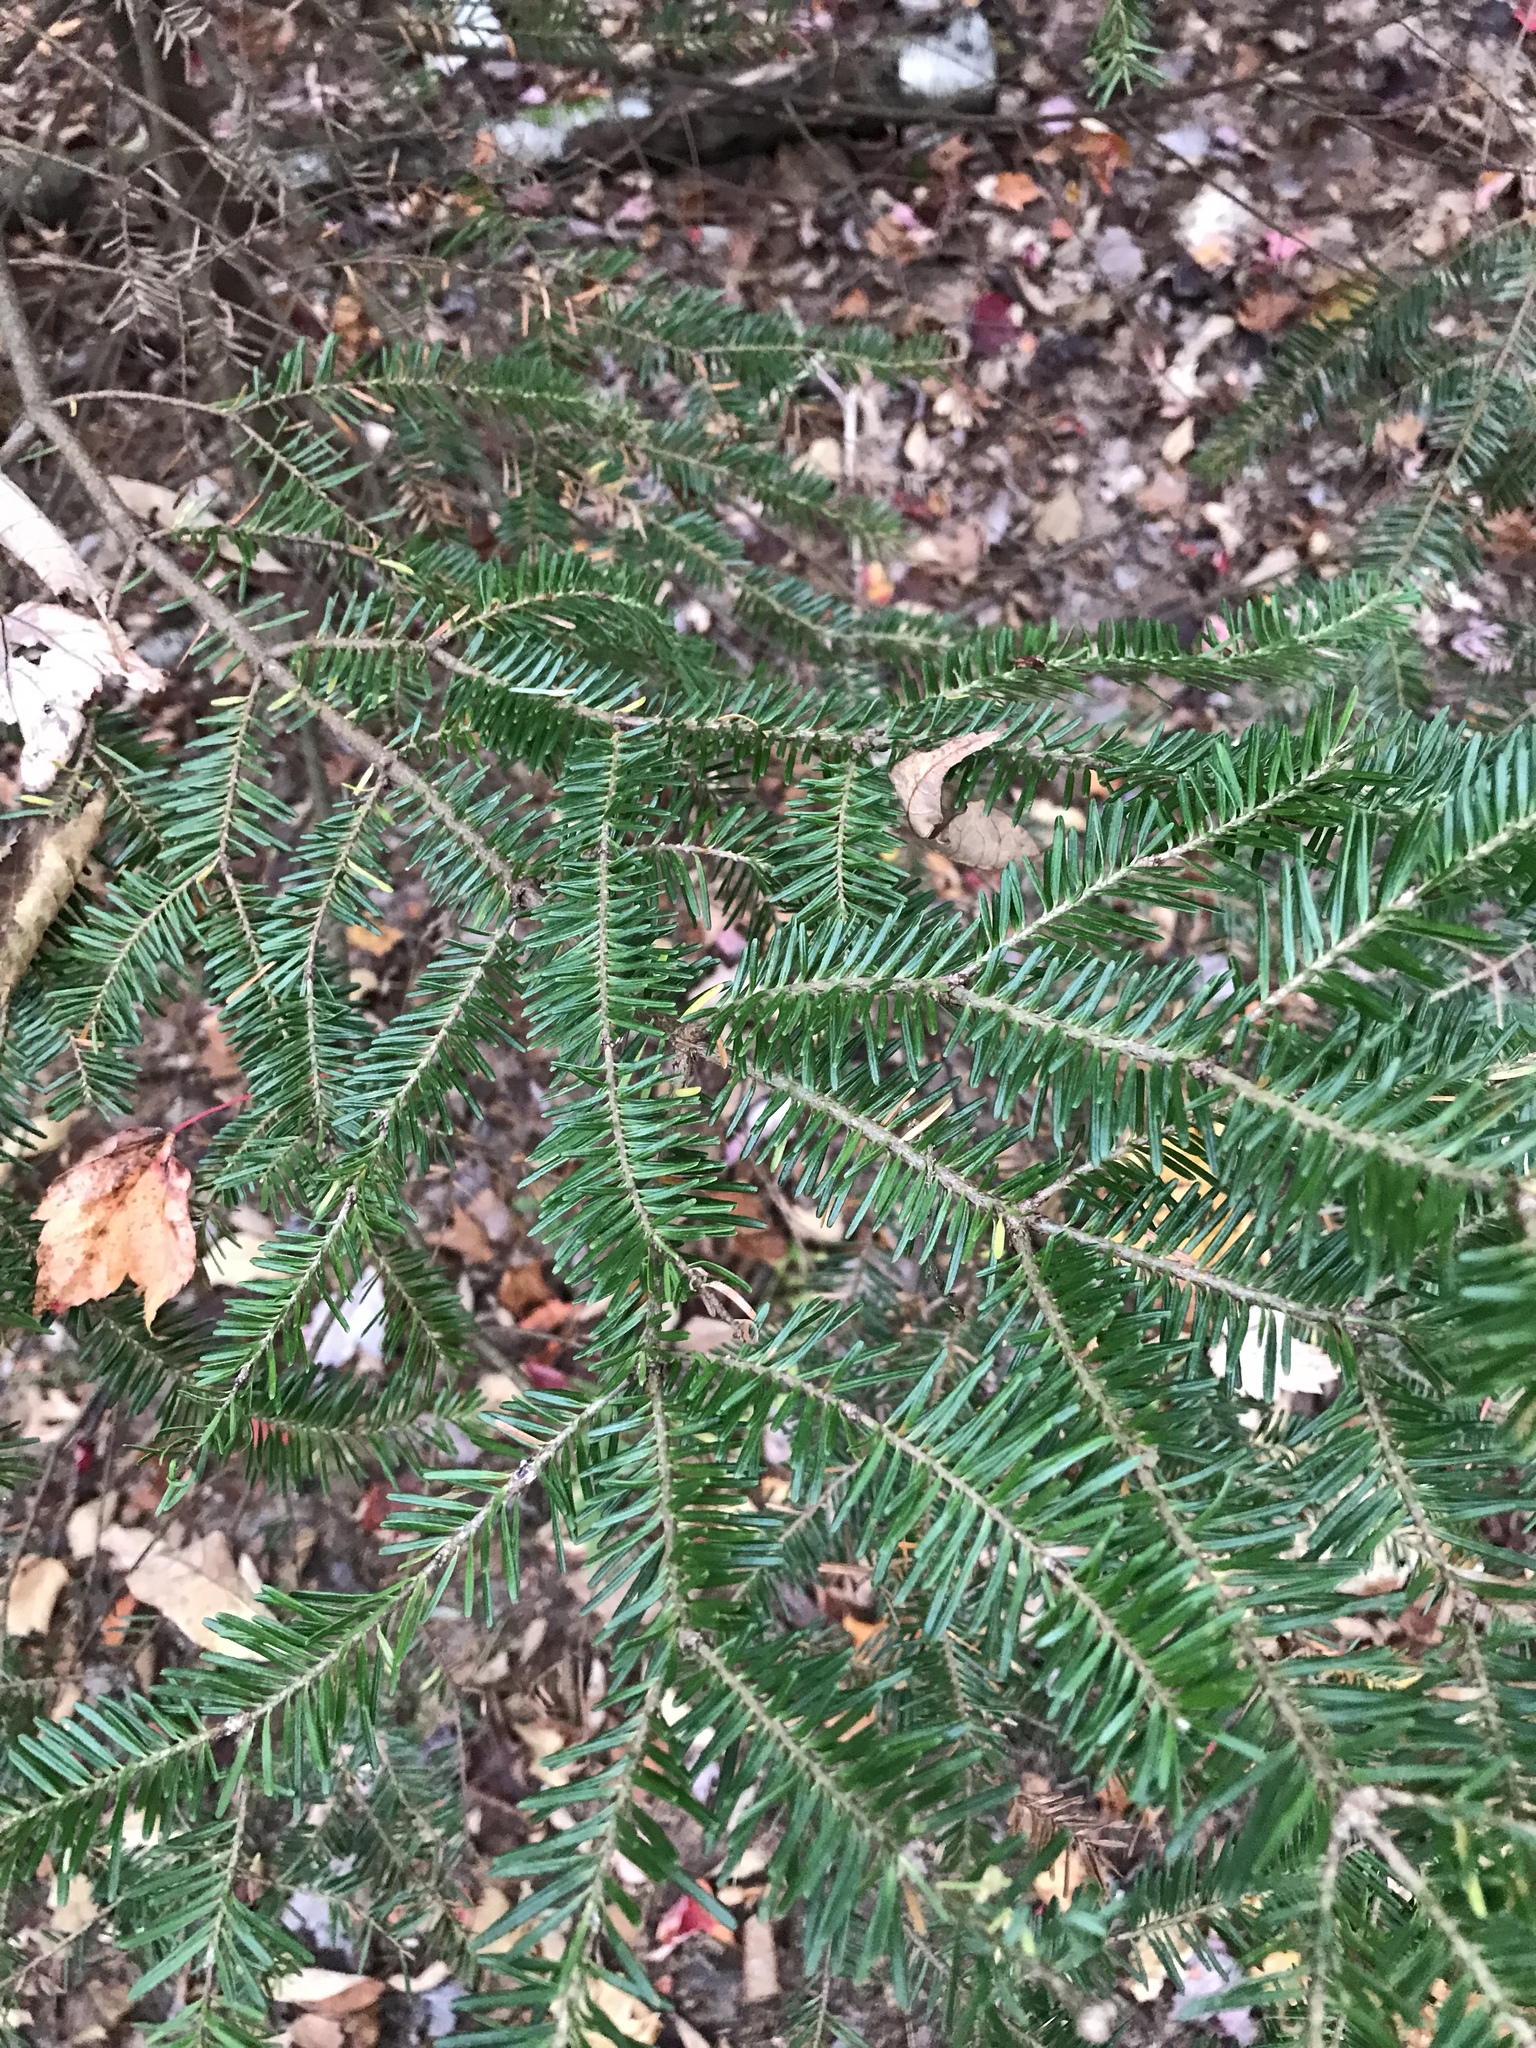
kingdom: Plantae
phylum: Tracheophyta
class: Pinopsida
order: Pinales
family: Pinaceae
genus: Abies
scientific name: Abies balsamea
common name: Balsam fir
